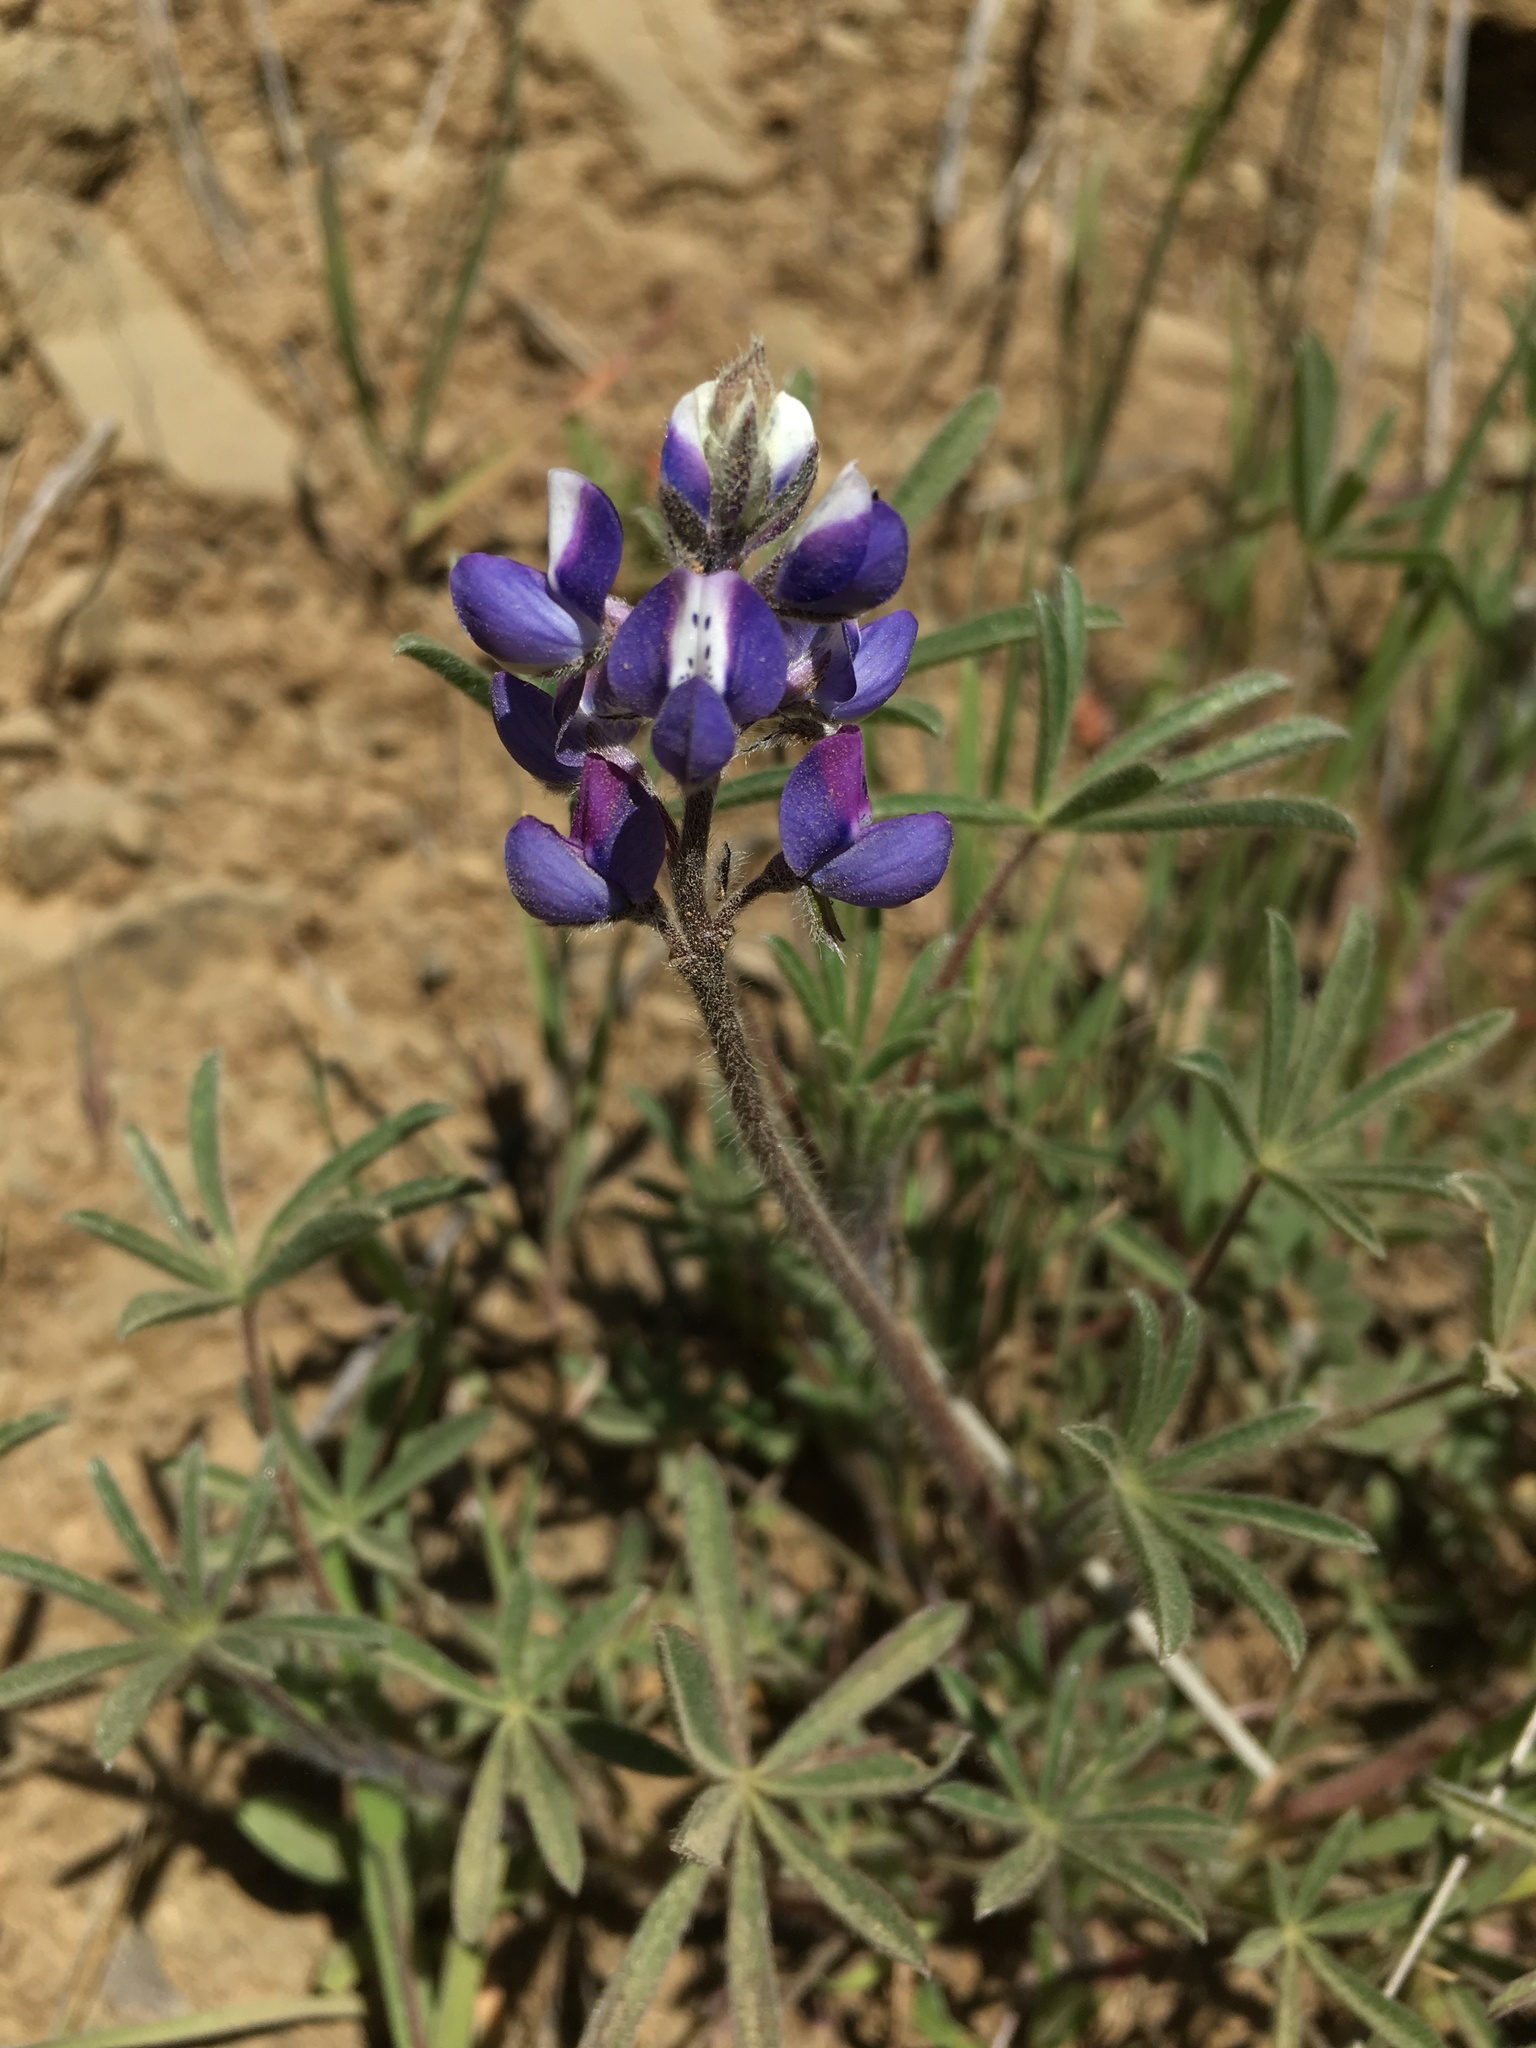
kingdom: Plantae
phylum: Tracheophyta
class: Magnoliopsida
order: Fabales
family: Fabaceae
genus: Lupinus
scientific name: Lupinus bicolor
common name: Miniature lupine
